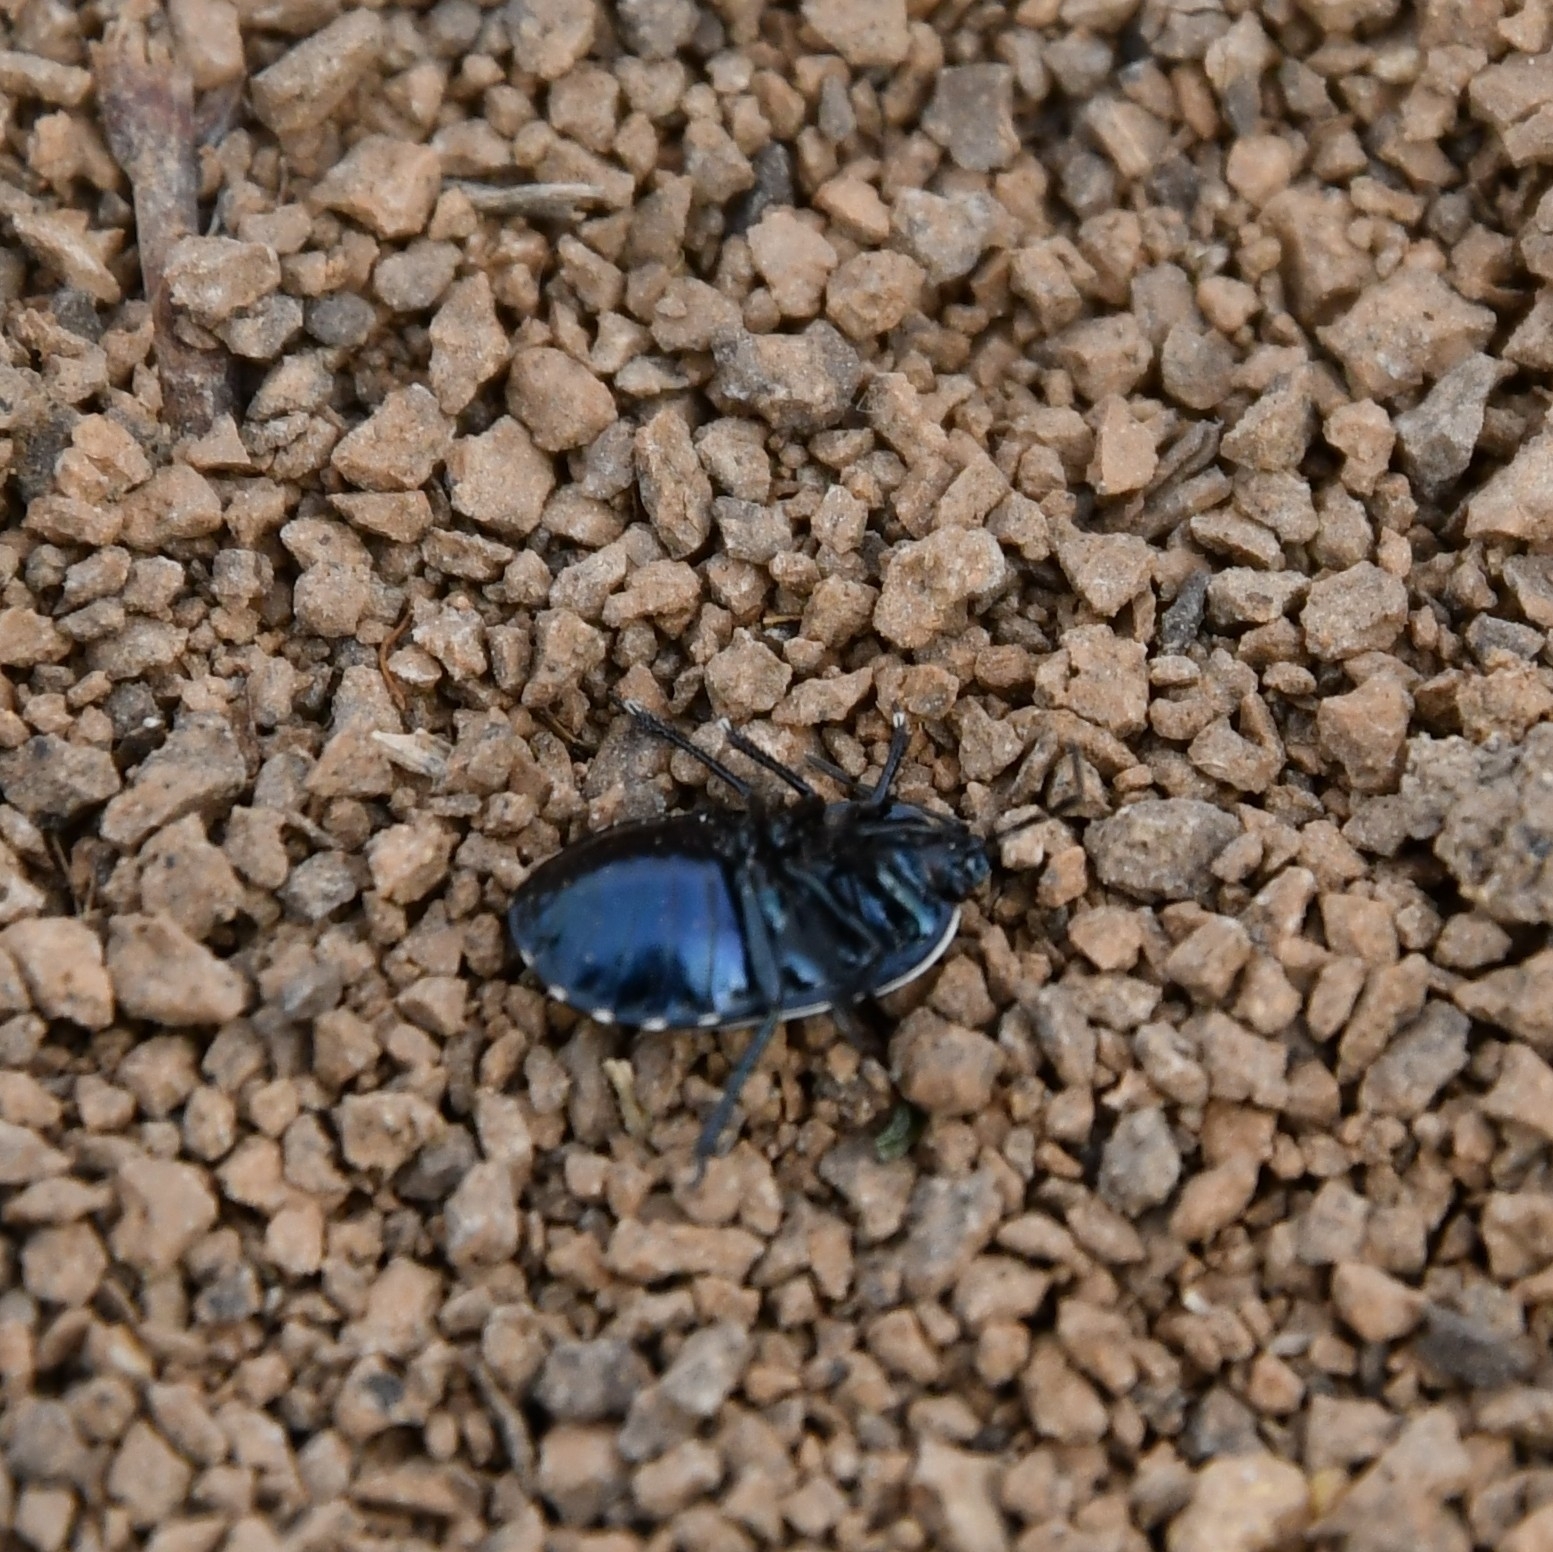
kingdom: Animalia
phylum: Arthropoda
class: Insecta
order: Hemiptera
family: Cydnidae
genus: Canthophorus
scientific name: Canthophorus impressus
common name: Bastard-toadflax bug
